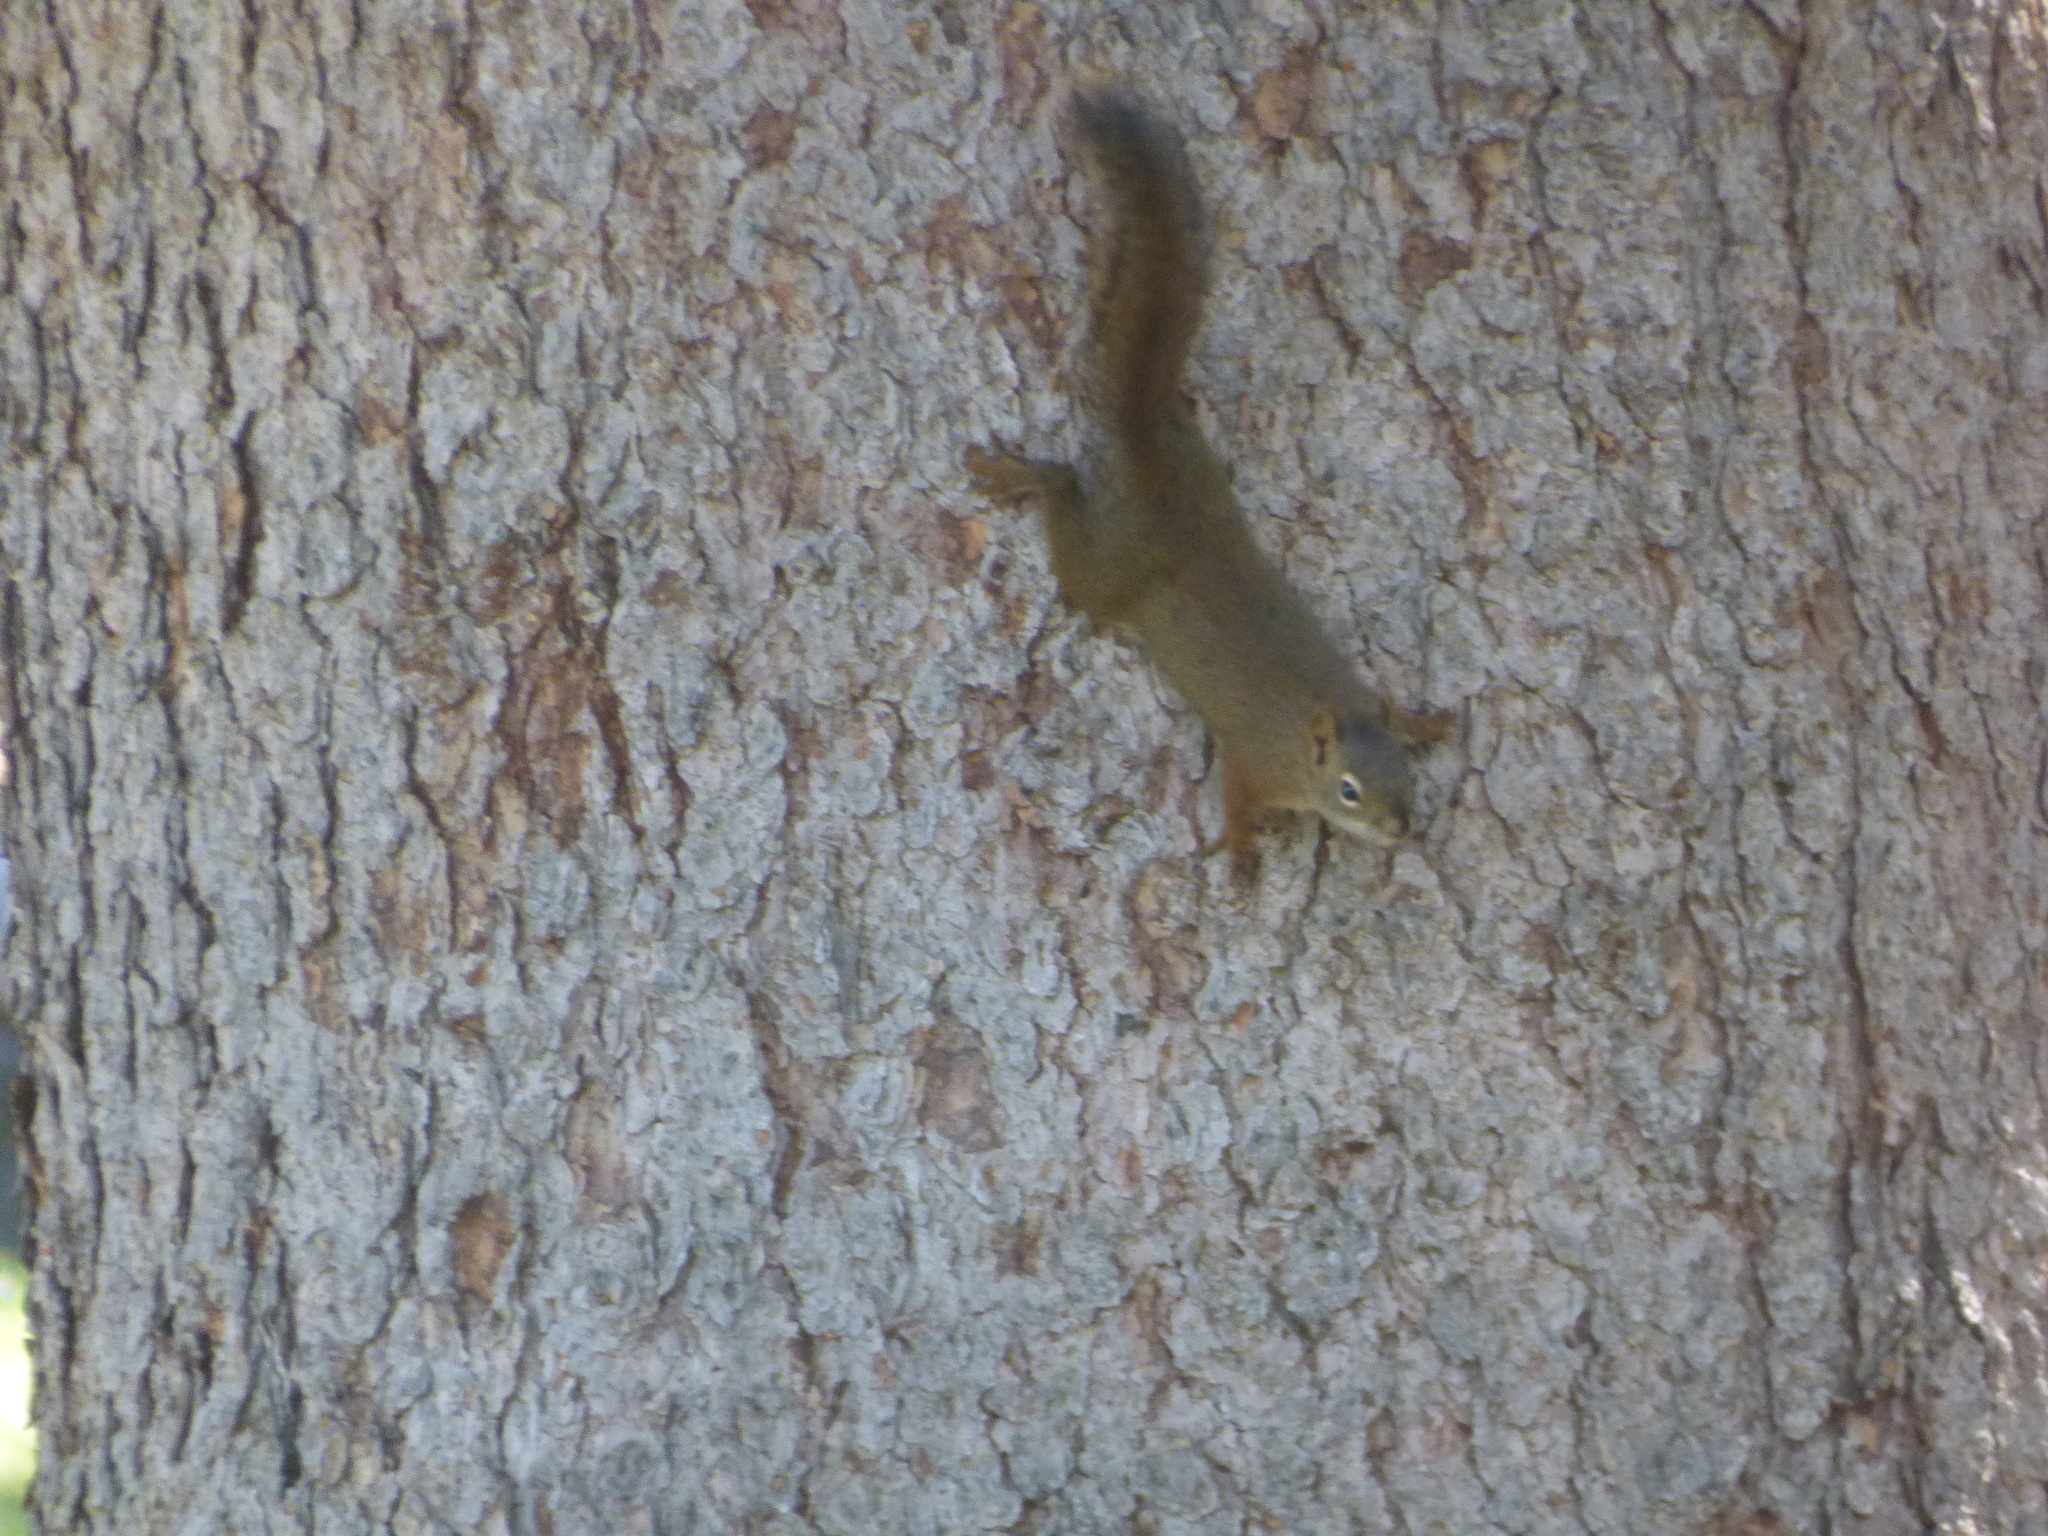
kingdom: Animalia
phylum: Chordata
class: Mammalia
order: Rodentia
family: Sciuridae
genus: Tamiasciurus
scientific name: Tamiasciurus hudsonicus
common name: Red squirrel
